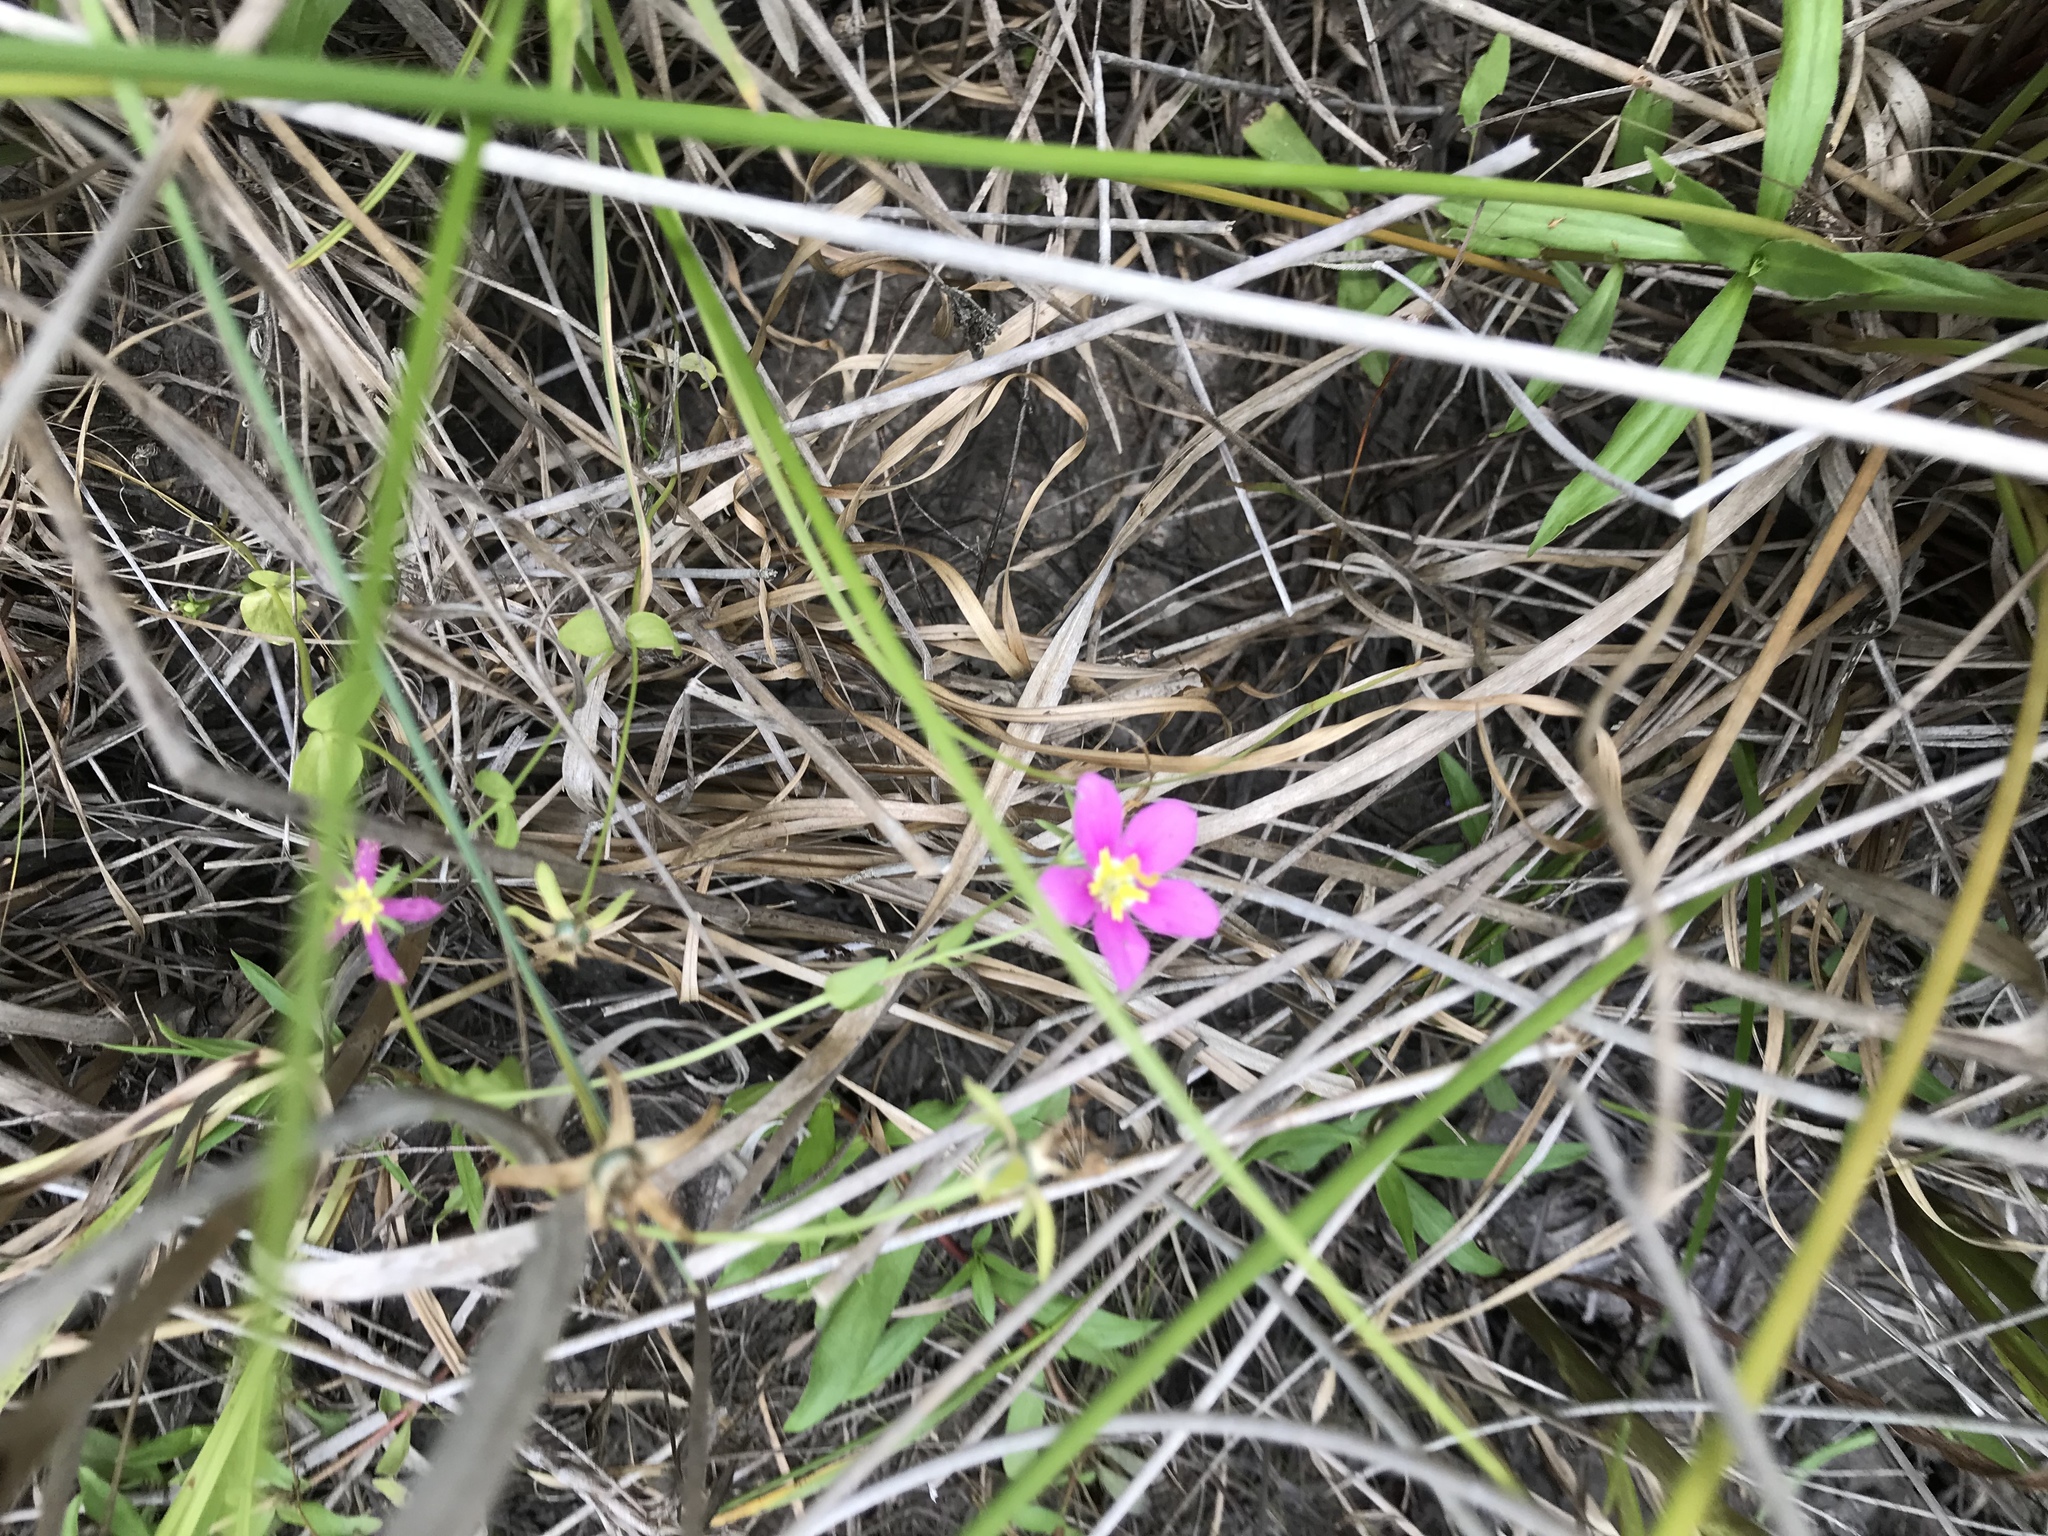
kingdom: Plantae
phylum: Tracheophyta
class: Magnoliopsida
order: Gentianales
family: Gentianaceae
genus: Sabatia
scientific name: Sabatia campestris
